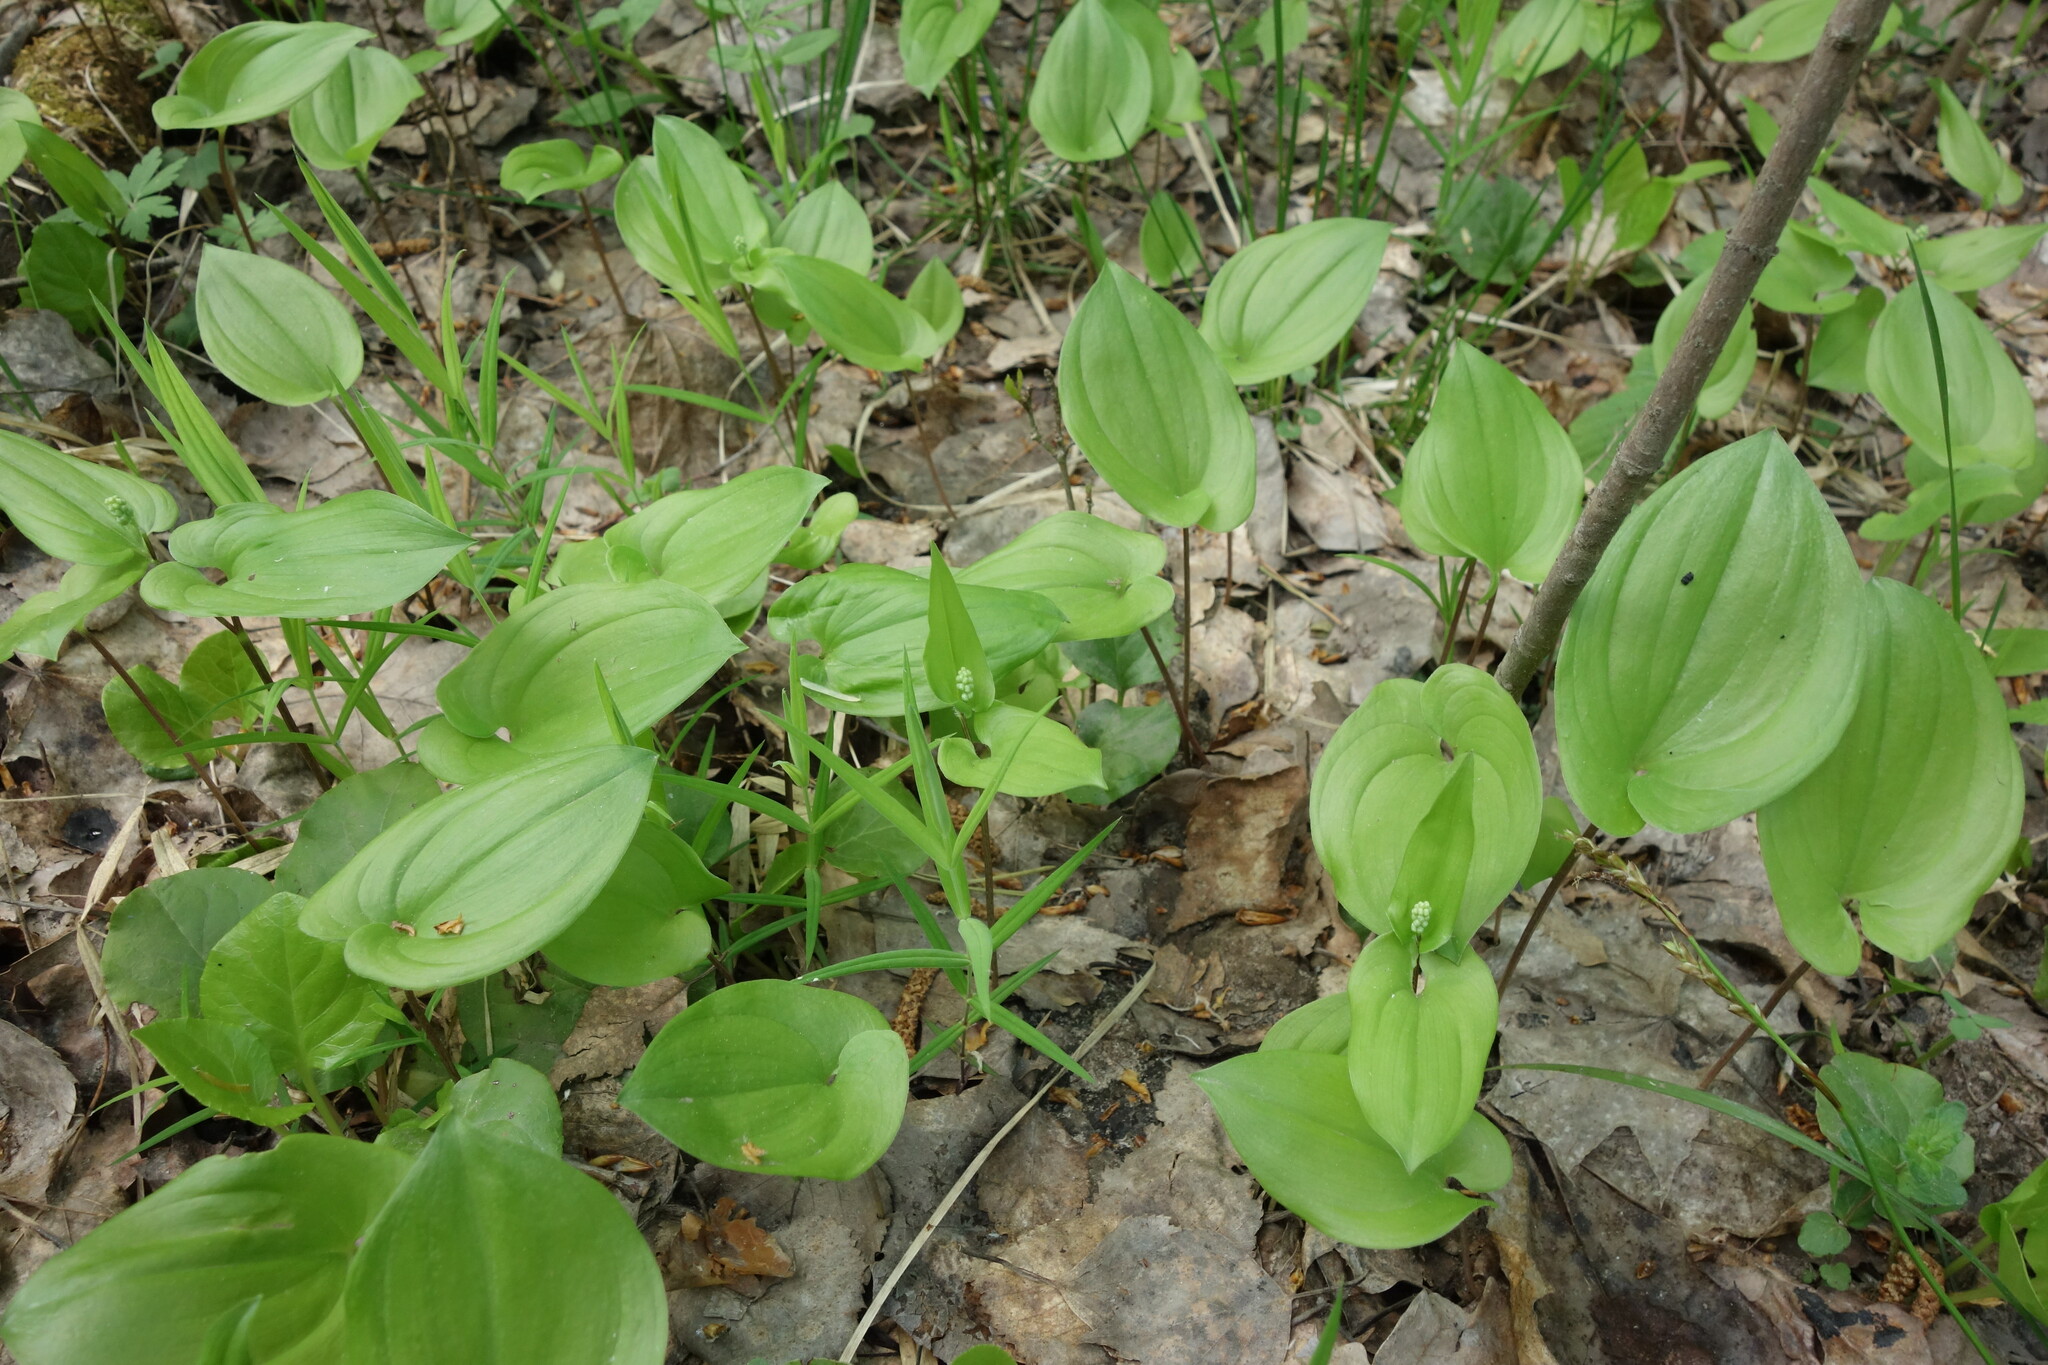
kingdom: Plantae
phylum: Tracheophyta
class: Liliopsida
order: Asparagales
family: Asparagaceae
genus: Maianthemum
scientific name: Maianthemum bifolium
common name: May lily
